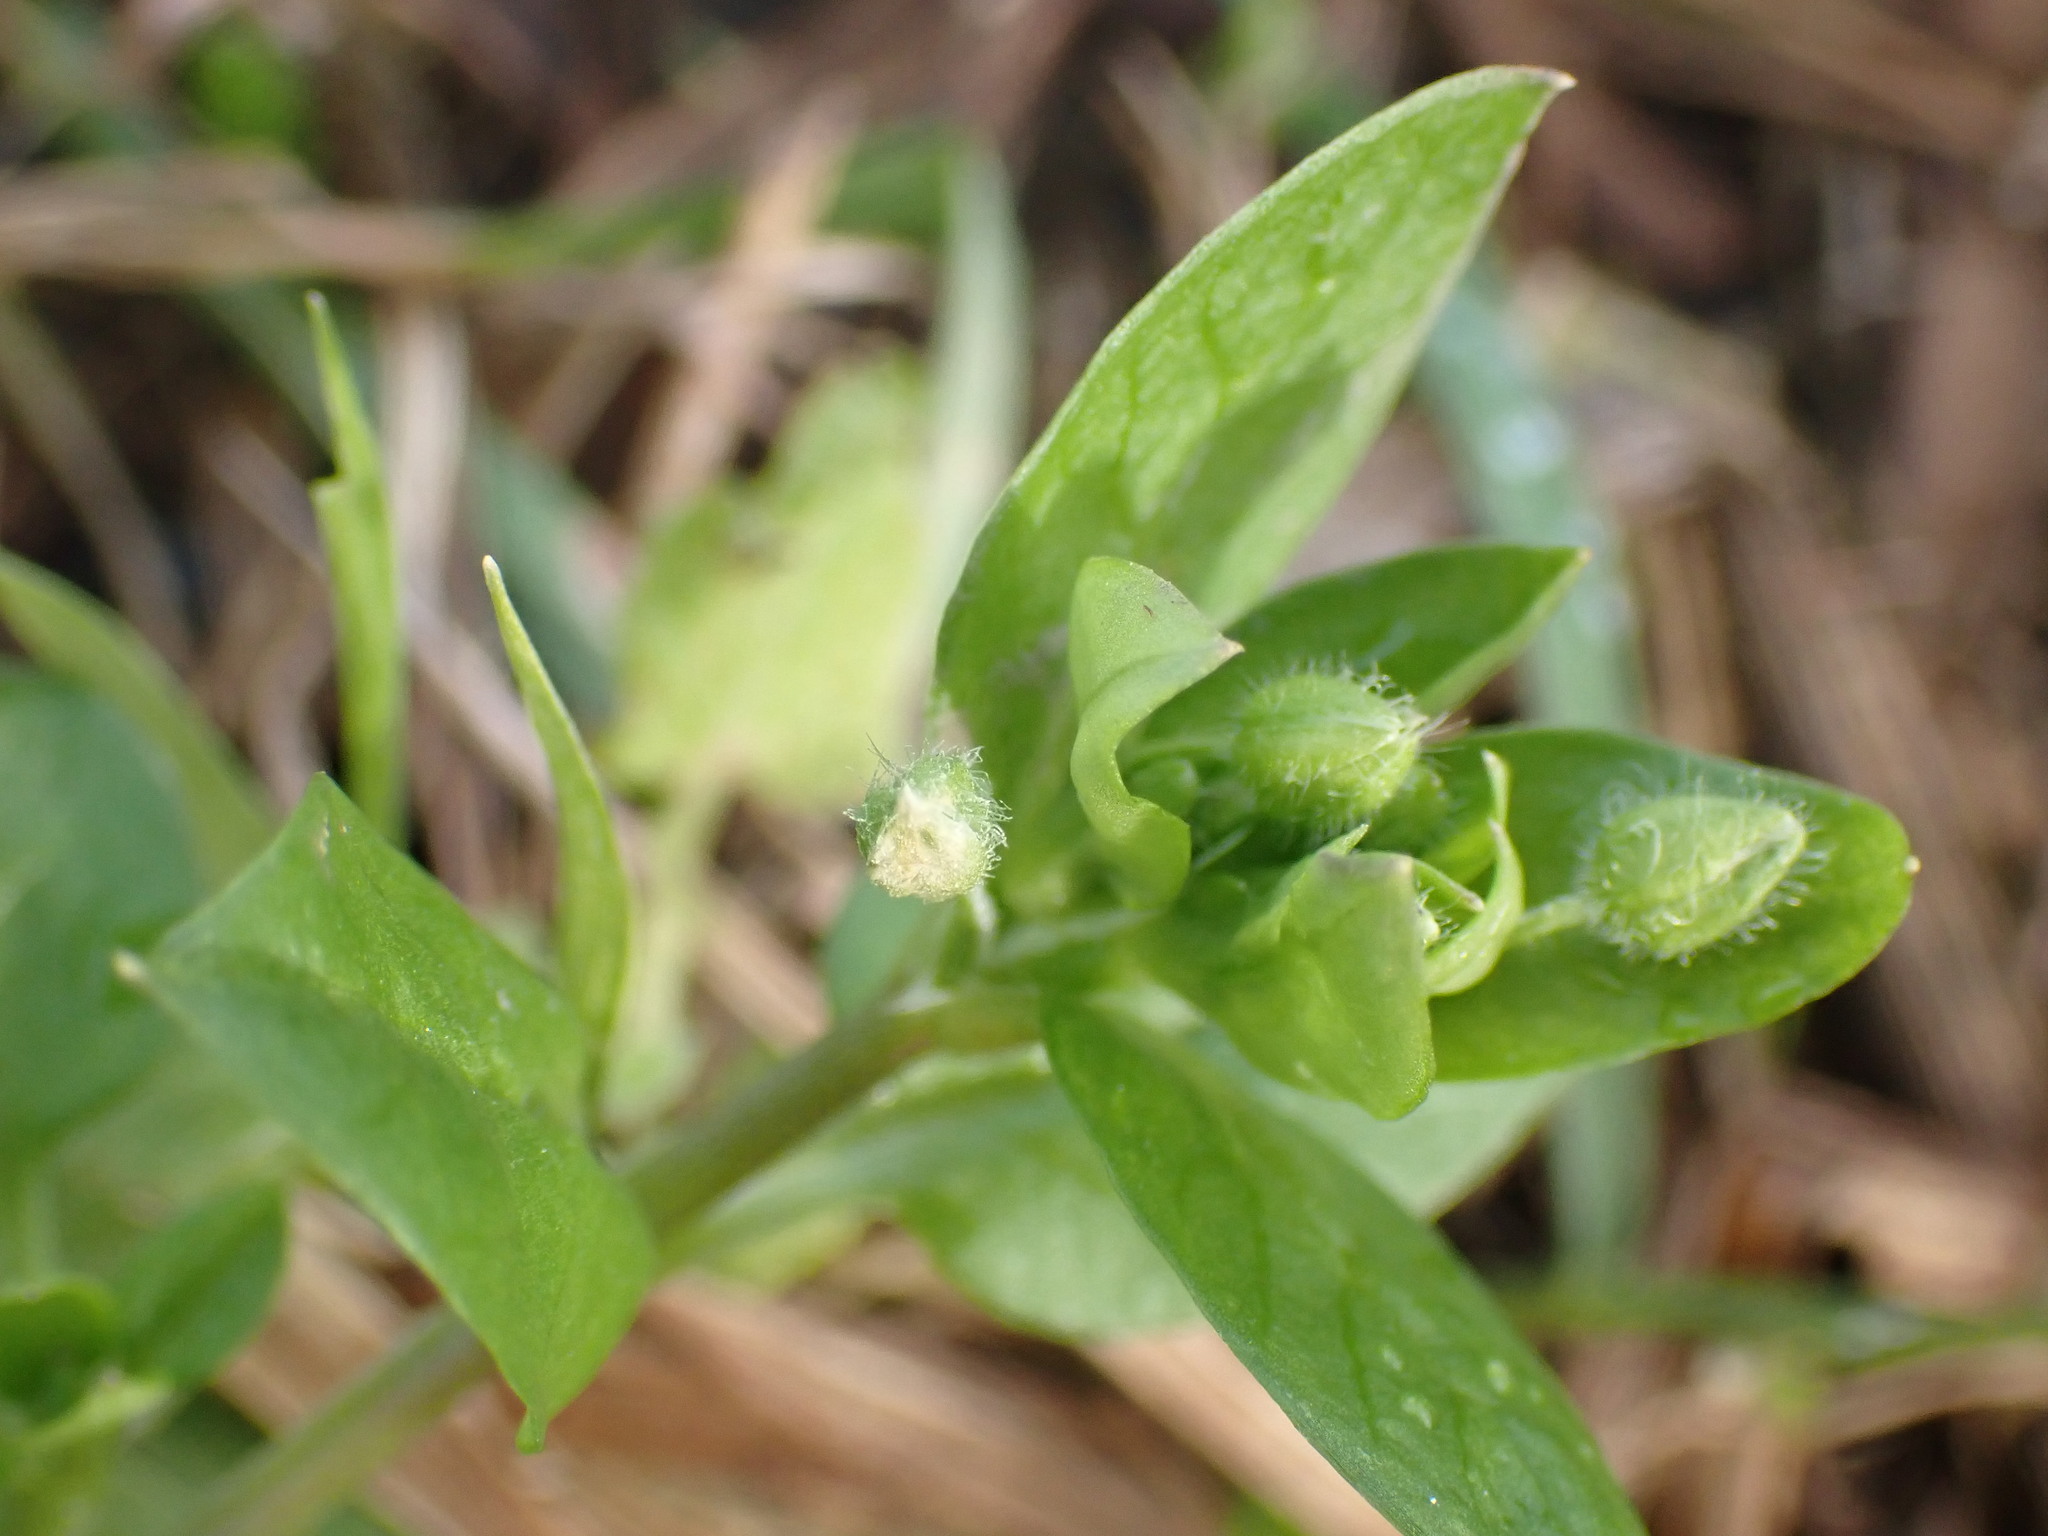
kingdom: Plantae
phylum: Tracheophyta
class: Magnoliopsida
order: Caryophyllales
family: Caryophyllaceae
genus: Stellaria
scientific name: Stellaria media
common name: Common chickweed
